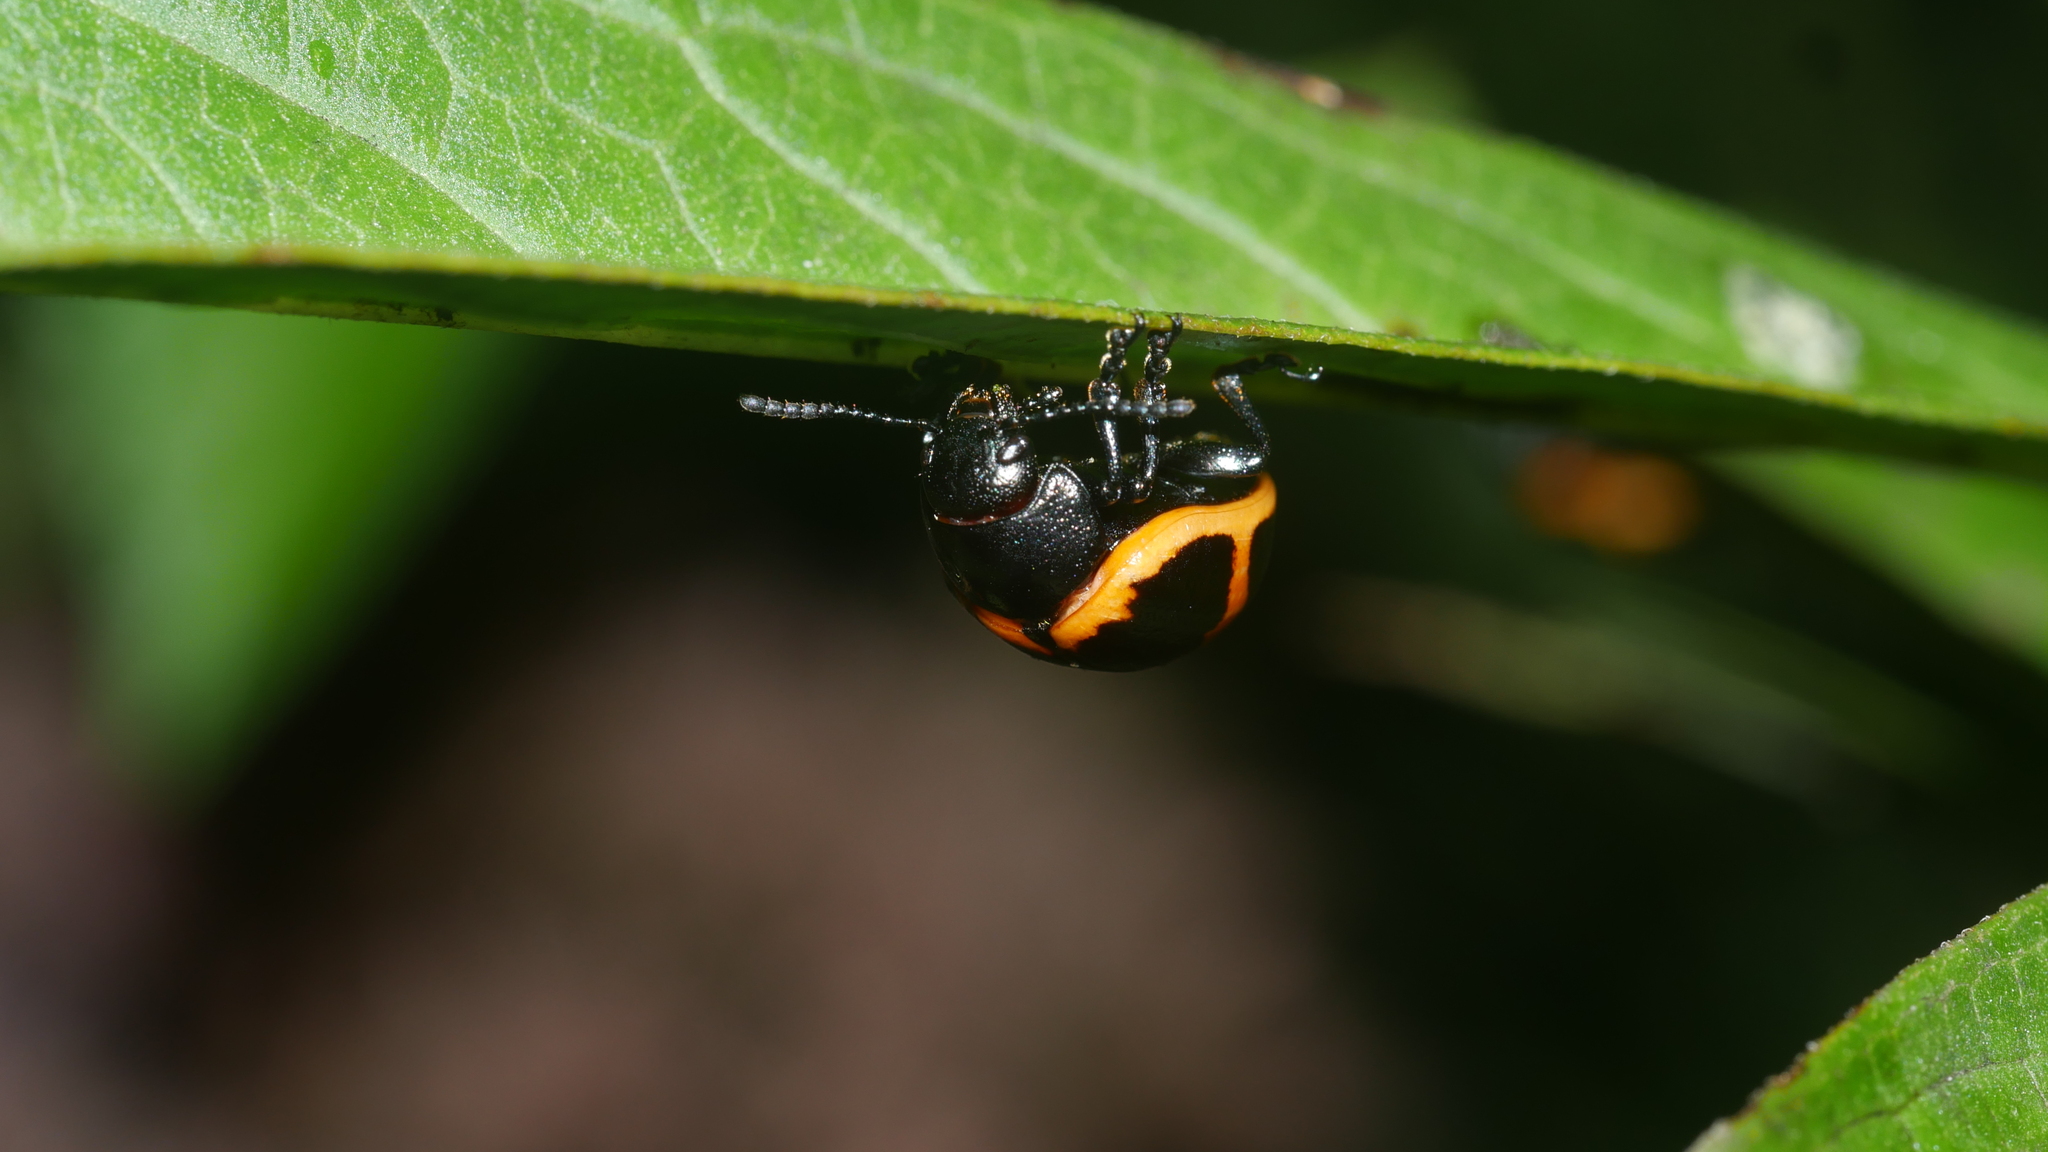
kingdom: Animalia
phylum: Arthropoda
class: Insecta
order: Coleoptera
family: Chrysomelidae
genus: Labidomera
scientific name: Labidomera clivicollis
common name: Swamp milkweed leaf beetle
